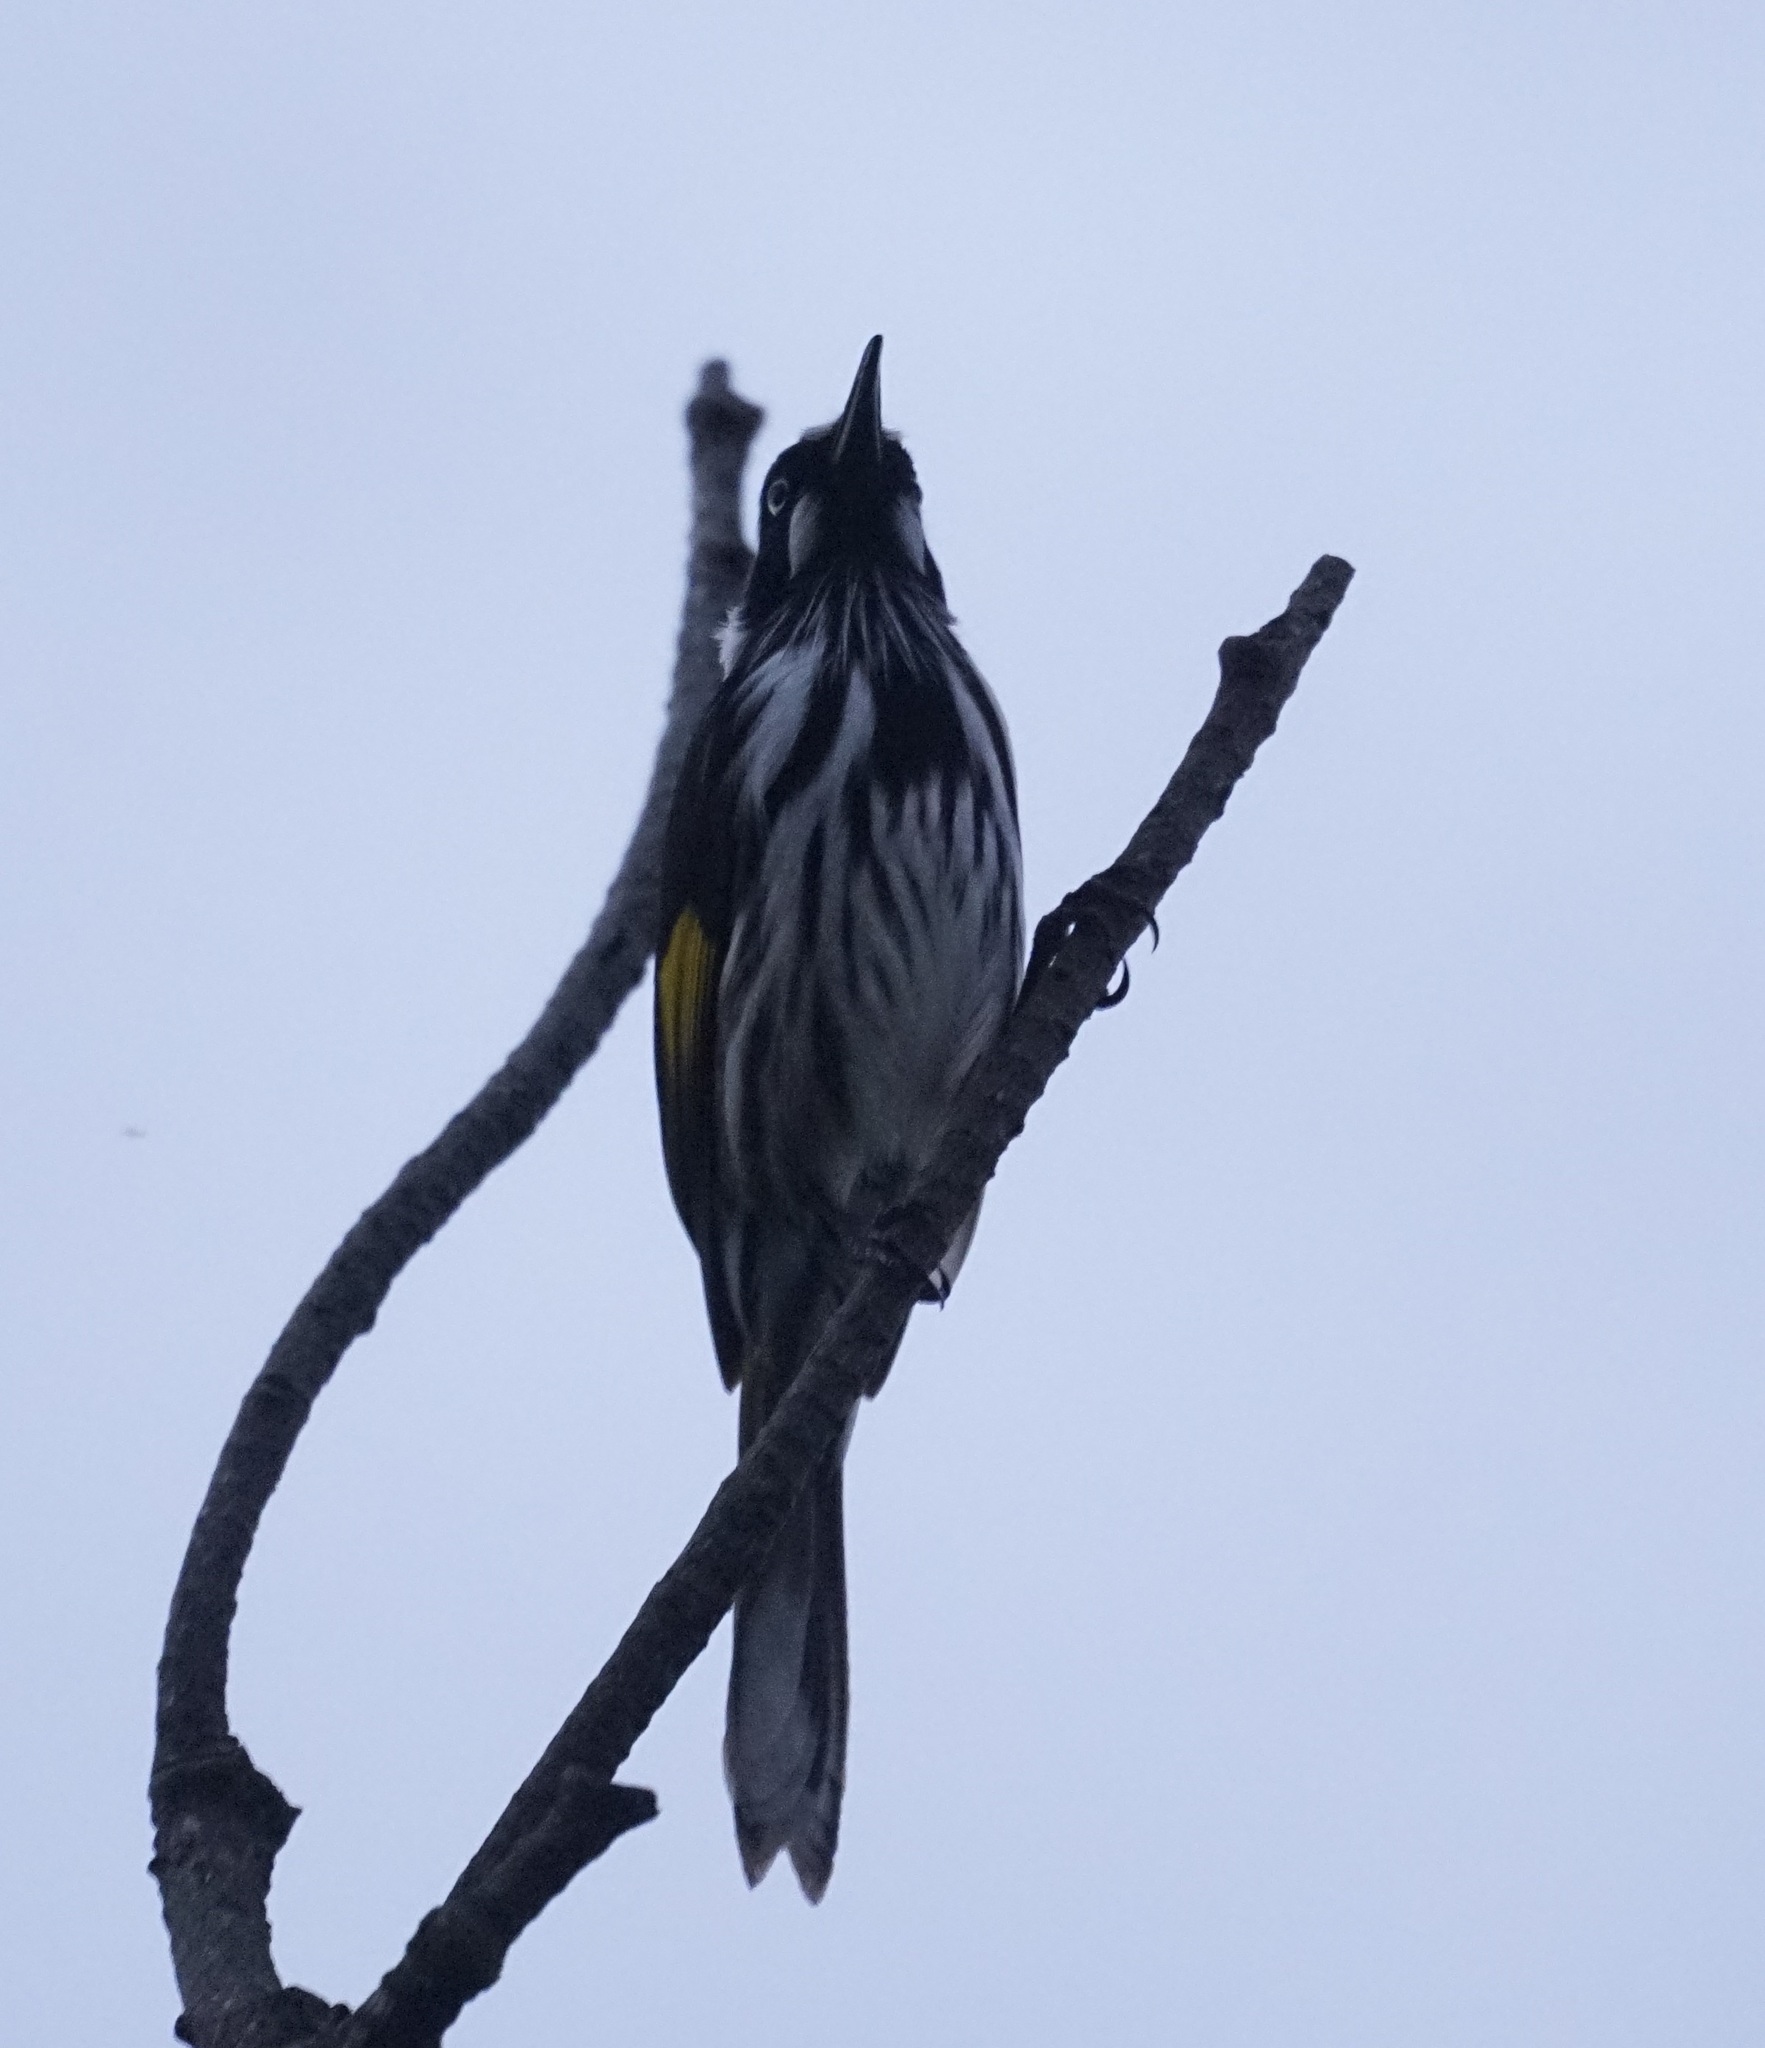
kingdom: Animalia
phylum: Chordata
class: Aves
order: Passeriformes
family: Meliphagidae
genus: Phylidonyris
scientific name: Phylidonyris novaehollandiae
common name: New holland honeyeater
